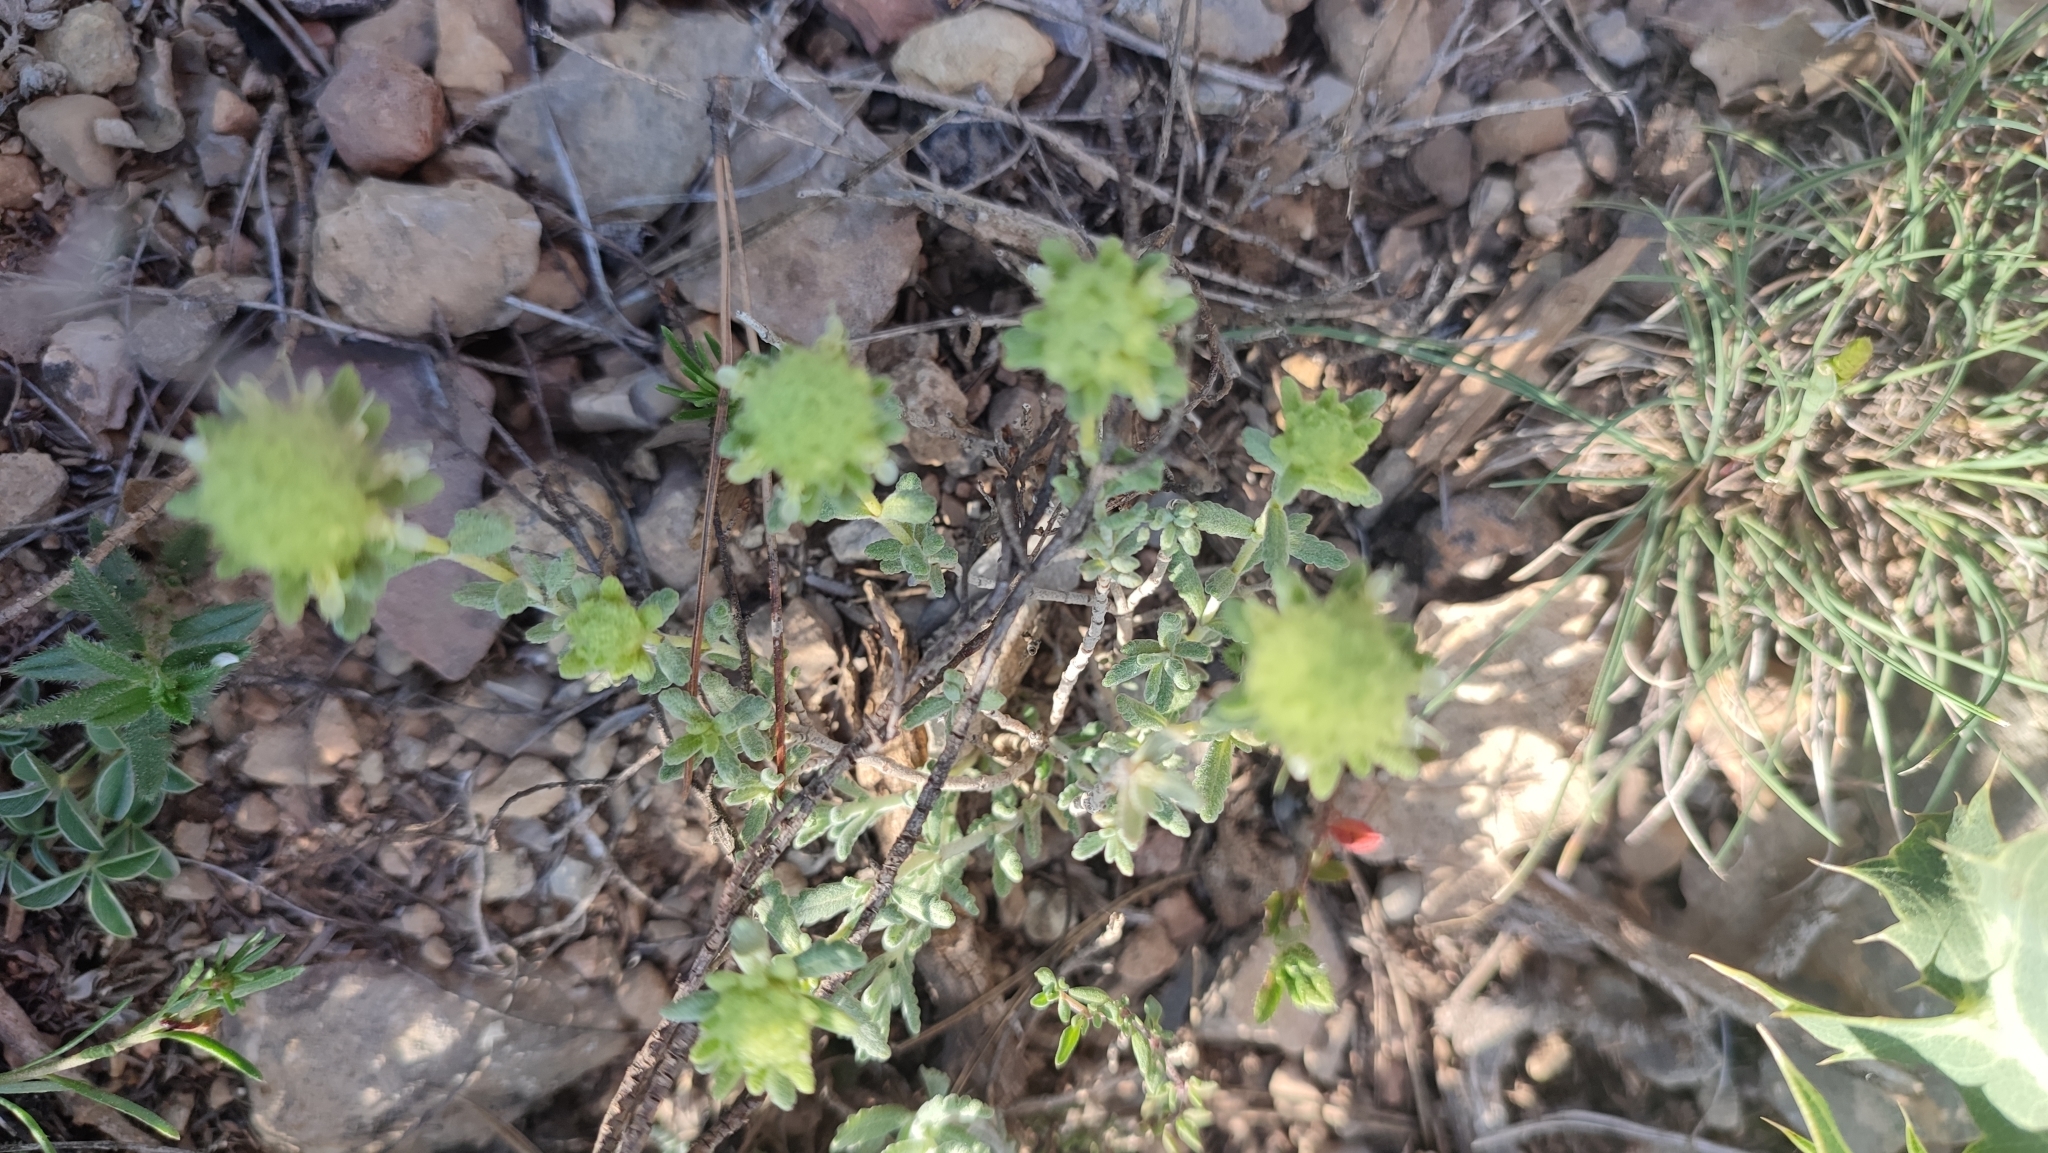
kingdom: Plantae
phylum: Tracheophyta
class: Magnoliopsida
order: Lamiales
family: Lamiaceae
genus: Teucrium
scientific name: Teucrium polium
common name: Poley
